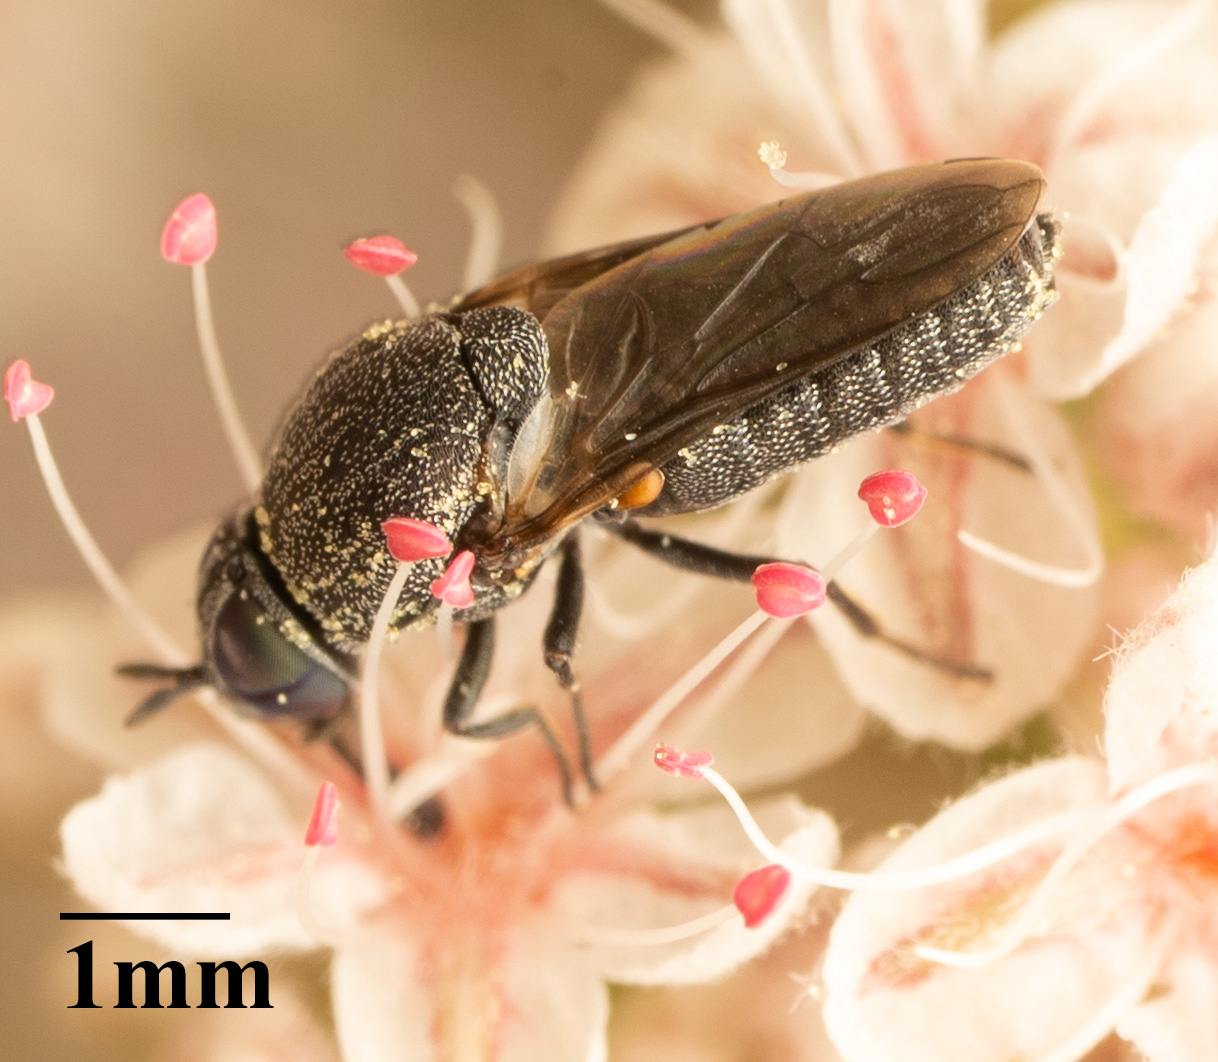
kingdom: Animalia
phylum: Arthropoda
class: Insecta
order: Diptera
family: Scenopinidae
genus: Metatrichia
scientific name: Metatrichia bulbosa
